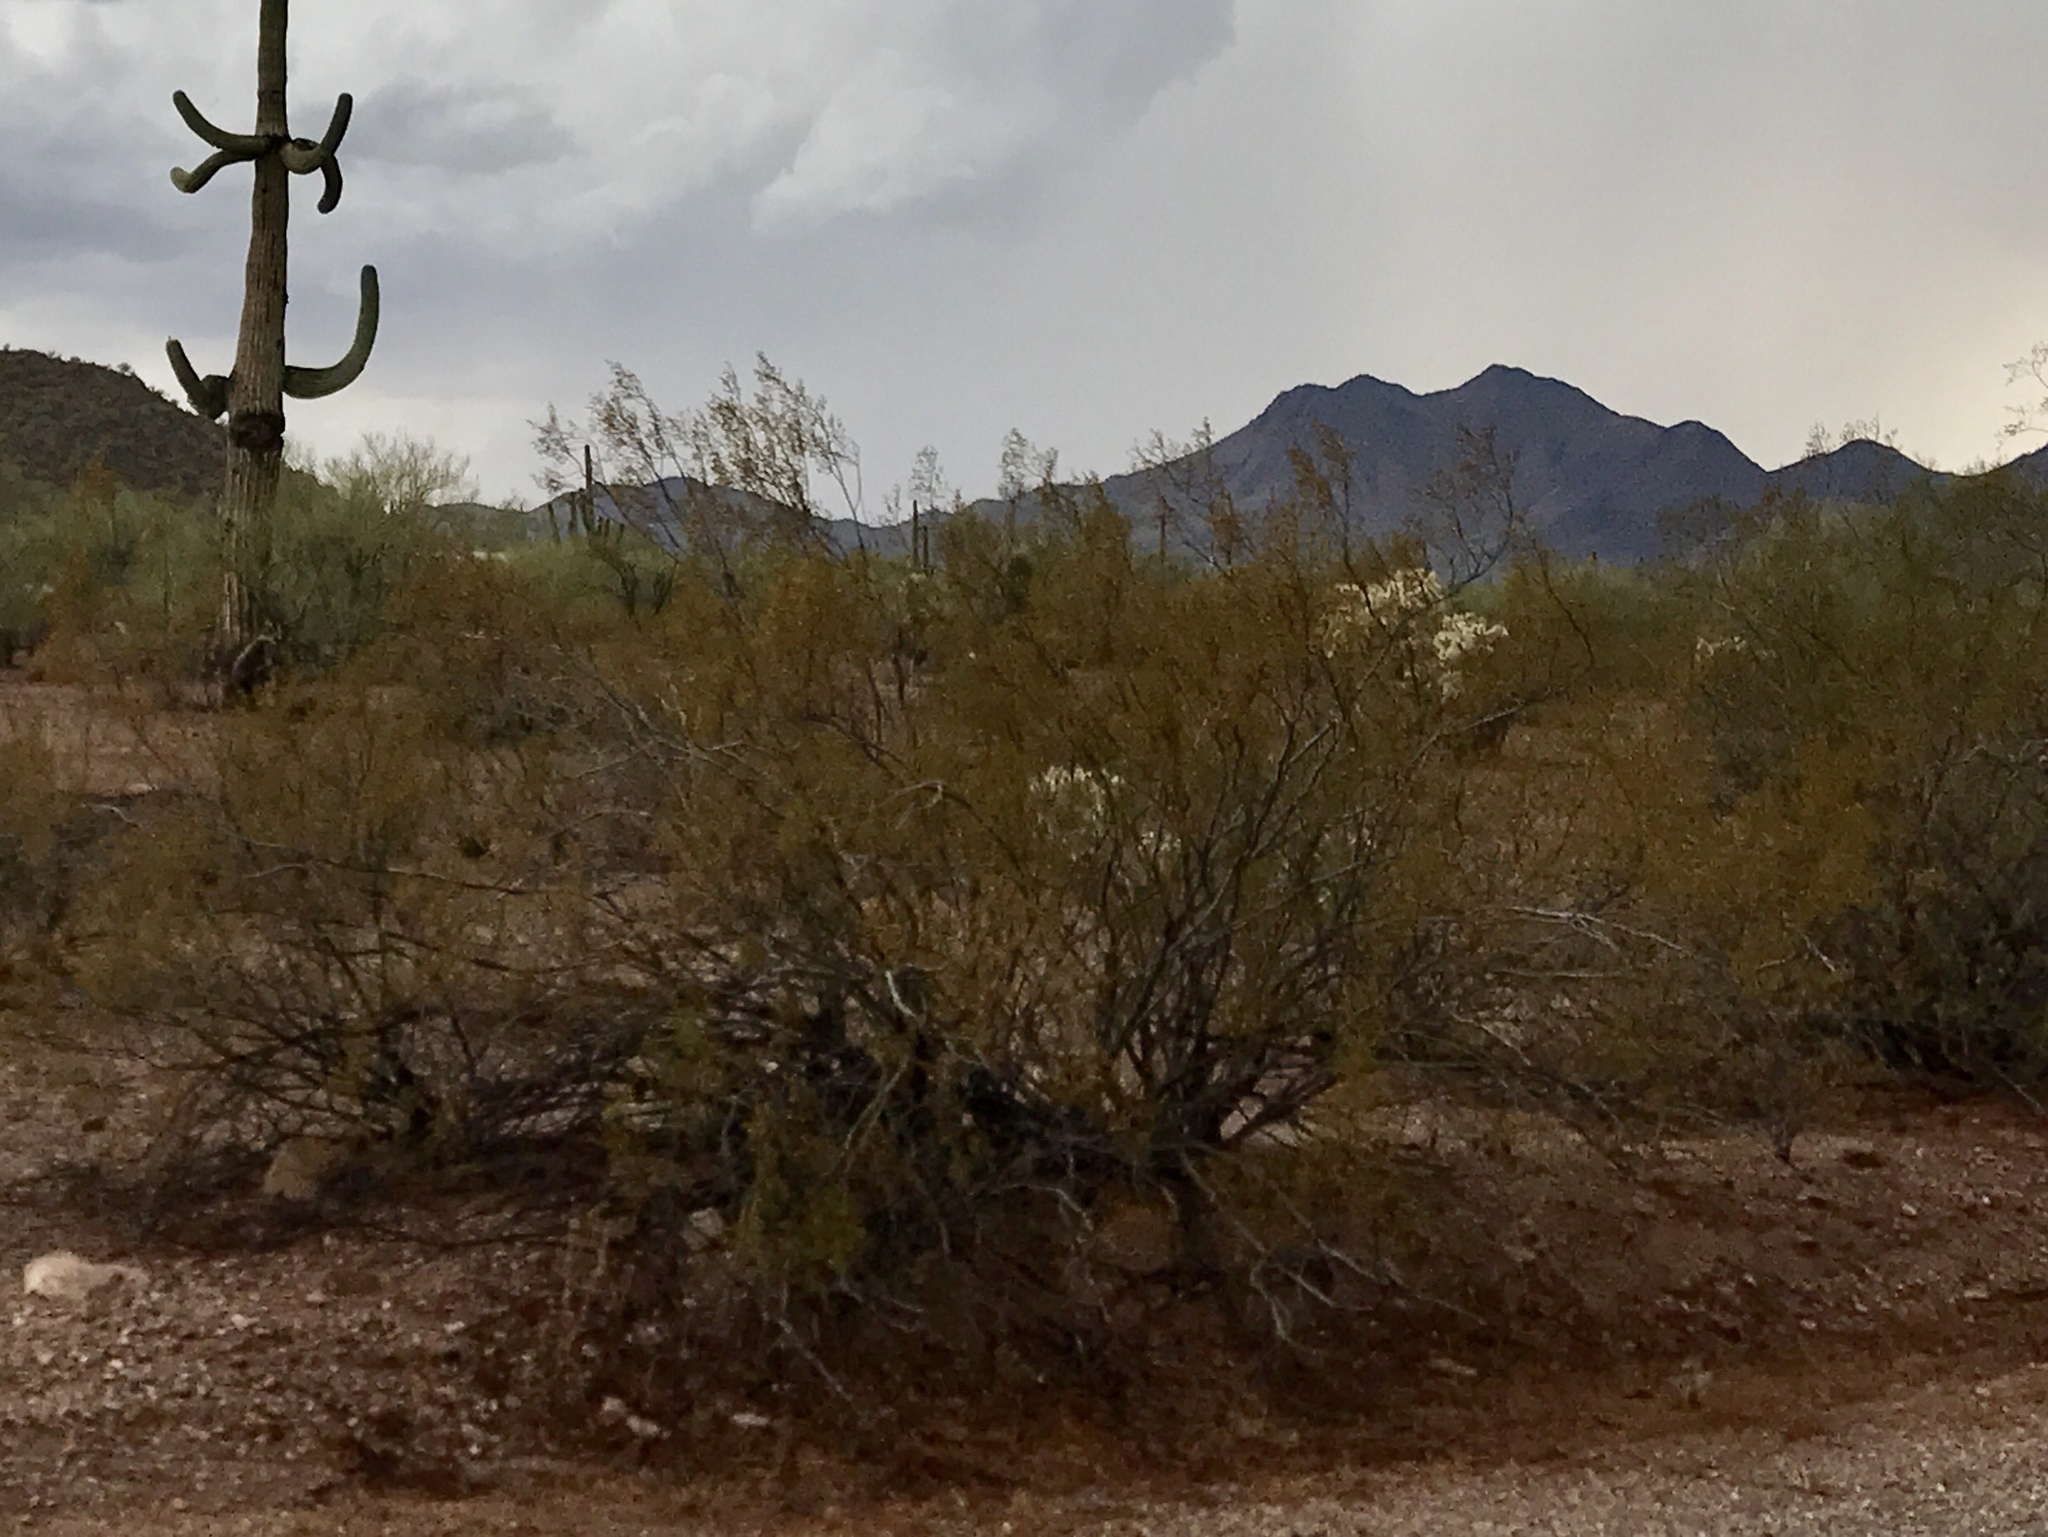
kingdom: Plantae
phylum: Tracheophyta
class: Magnoliopsida
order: Zygophyllales
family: Zygophyllaceae
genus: Larrea
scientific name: Larrea tridentata
